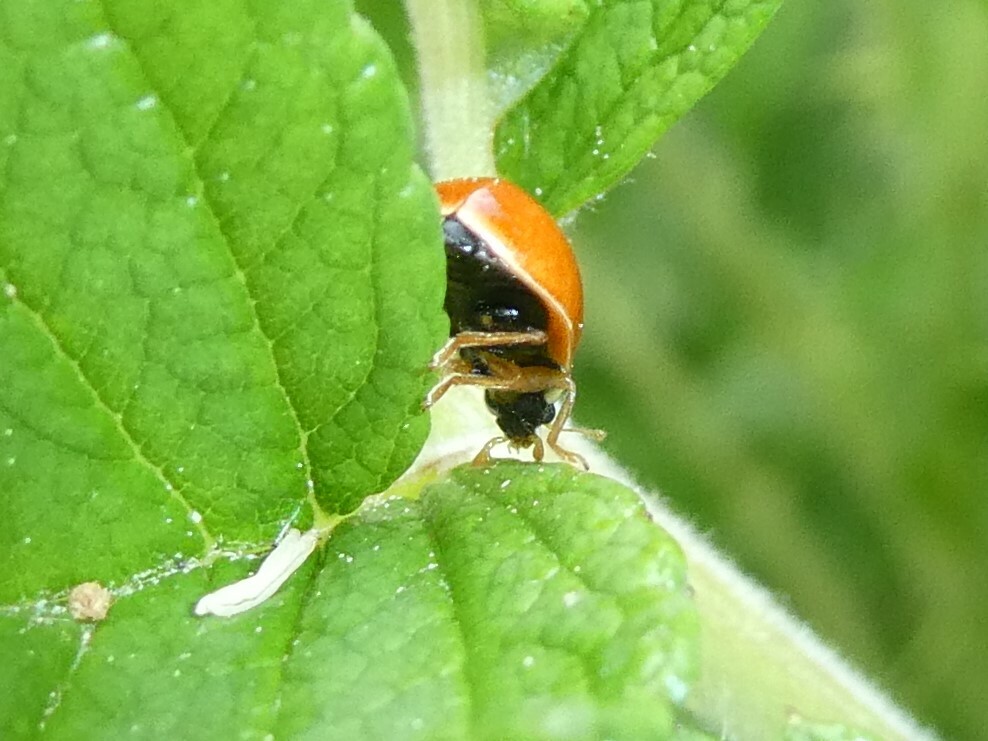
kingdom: Animalia
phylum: Arthropoda
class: Insecta
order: Coleoptera
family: Coccinellidae
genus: Cycloneda
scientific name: Cycloneda munda
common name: Polished lady beetle
